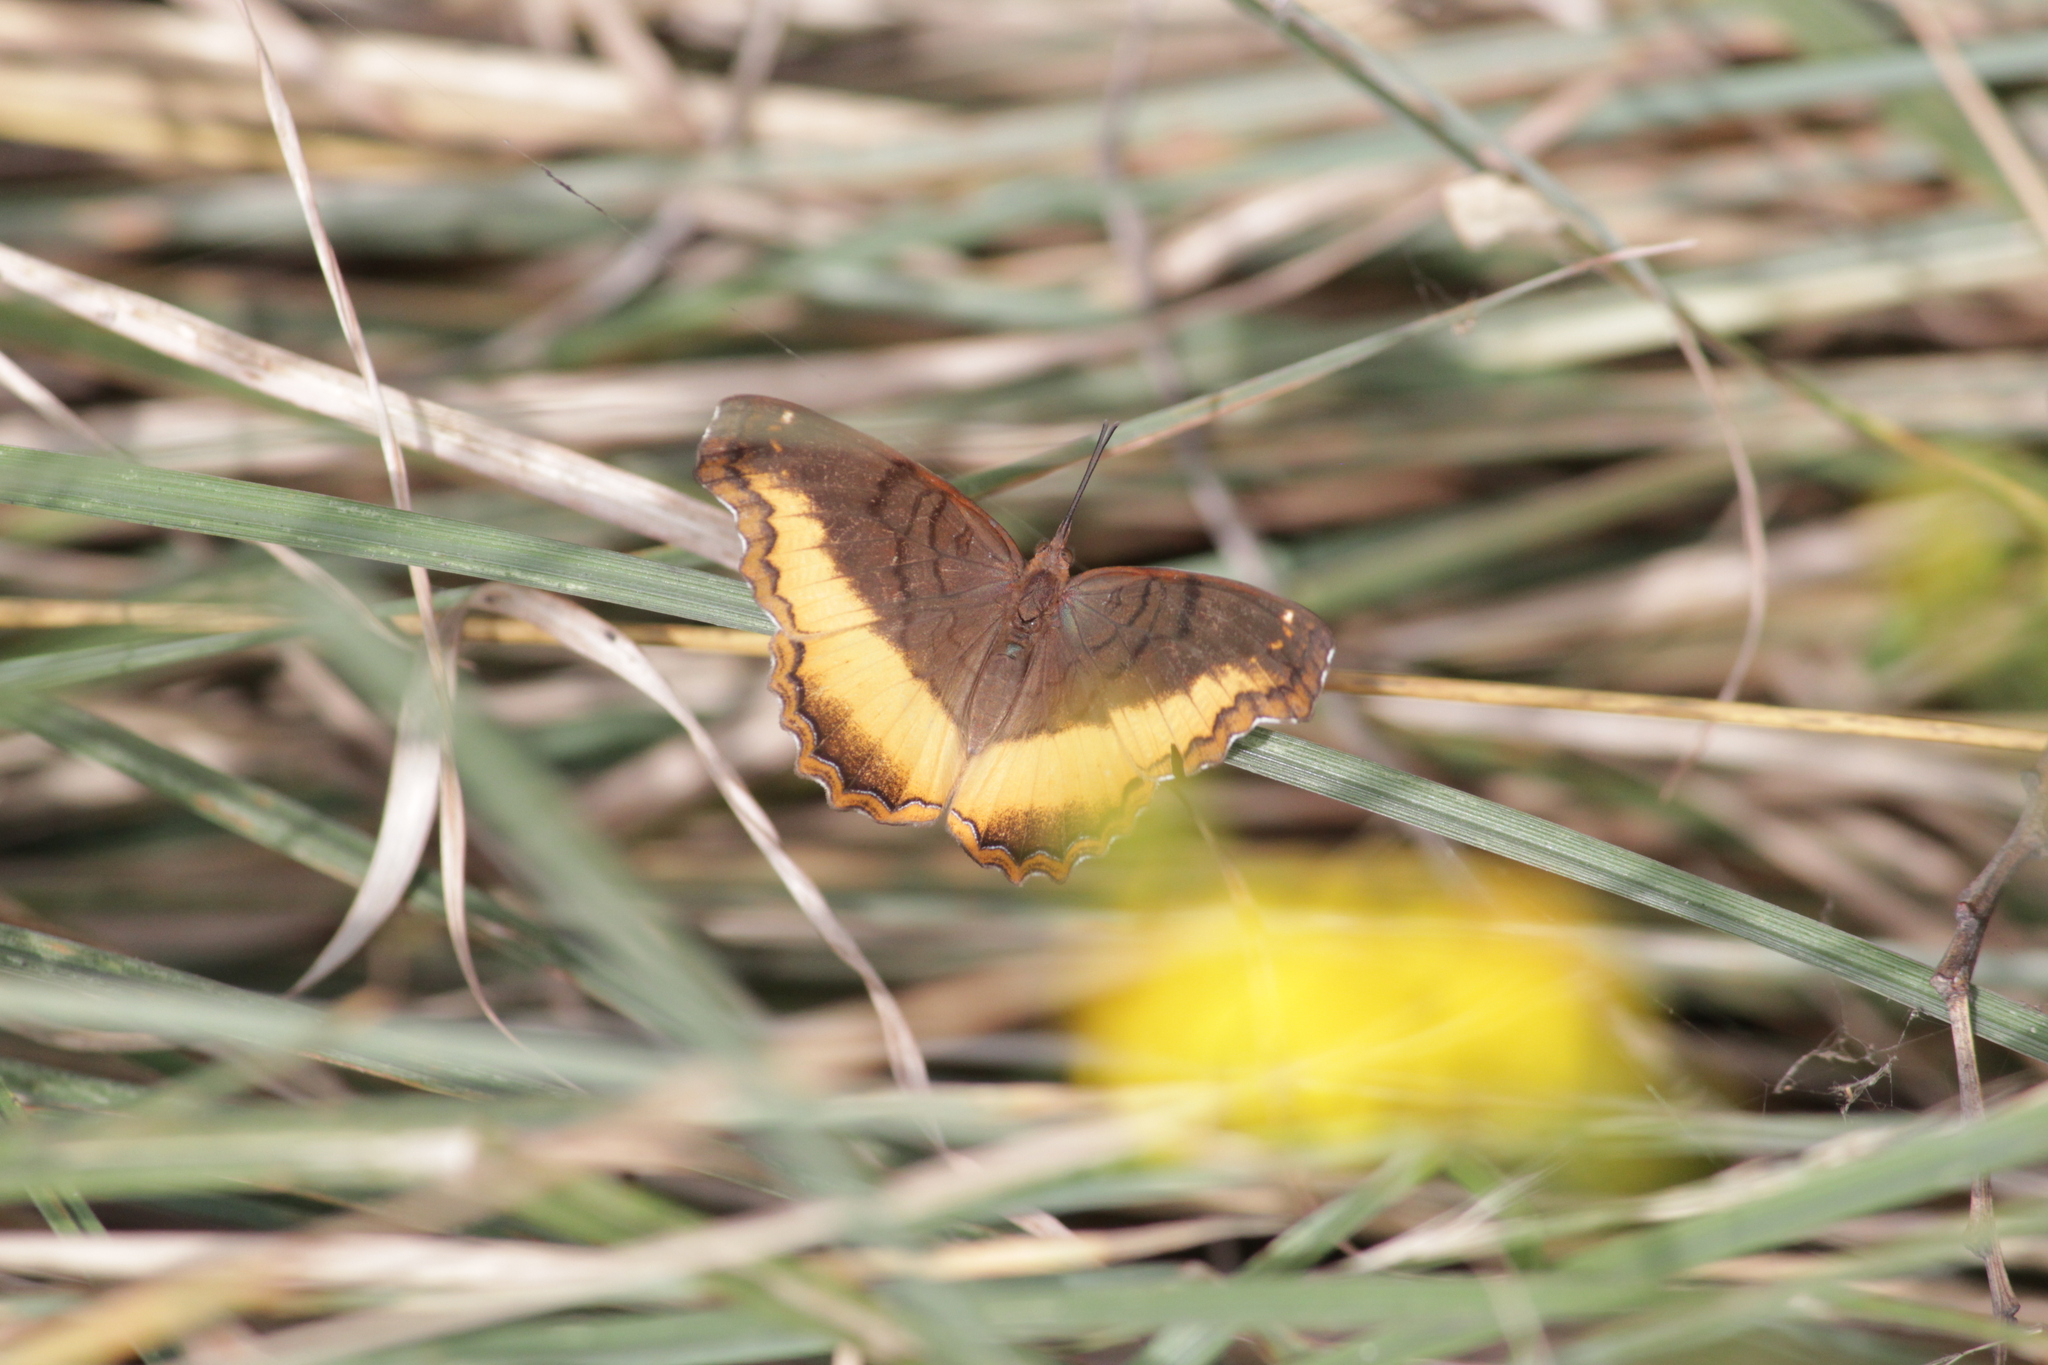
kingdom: Animalia
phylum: Arthropoda
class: Insecta
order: Lepidoptera
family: Nymphalidae
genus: Eurytela
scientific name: Eurytela dryope
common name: Golden piper
